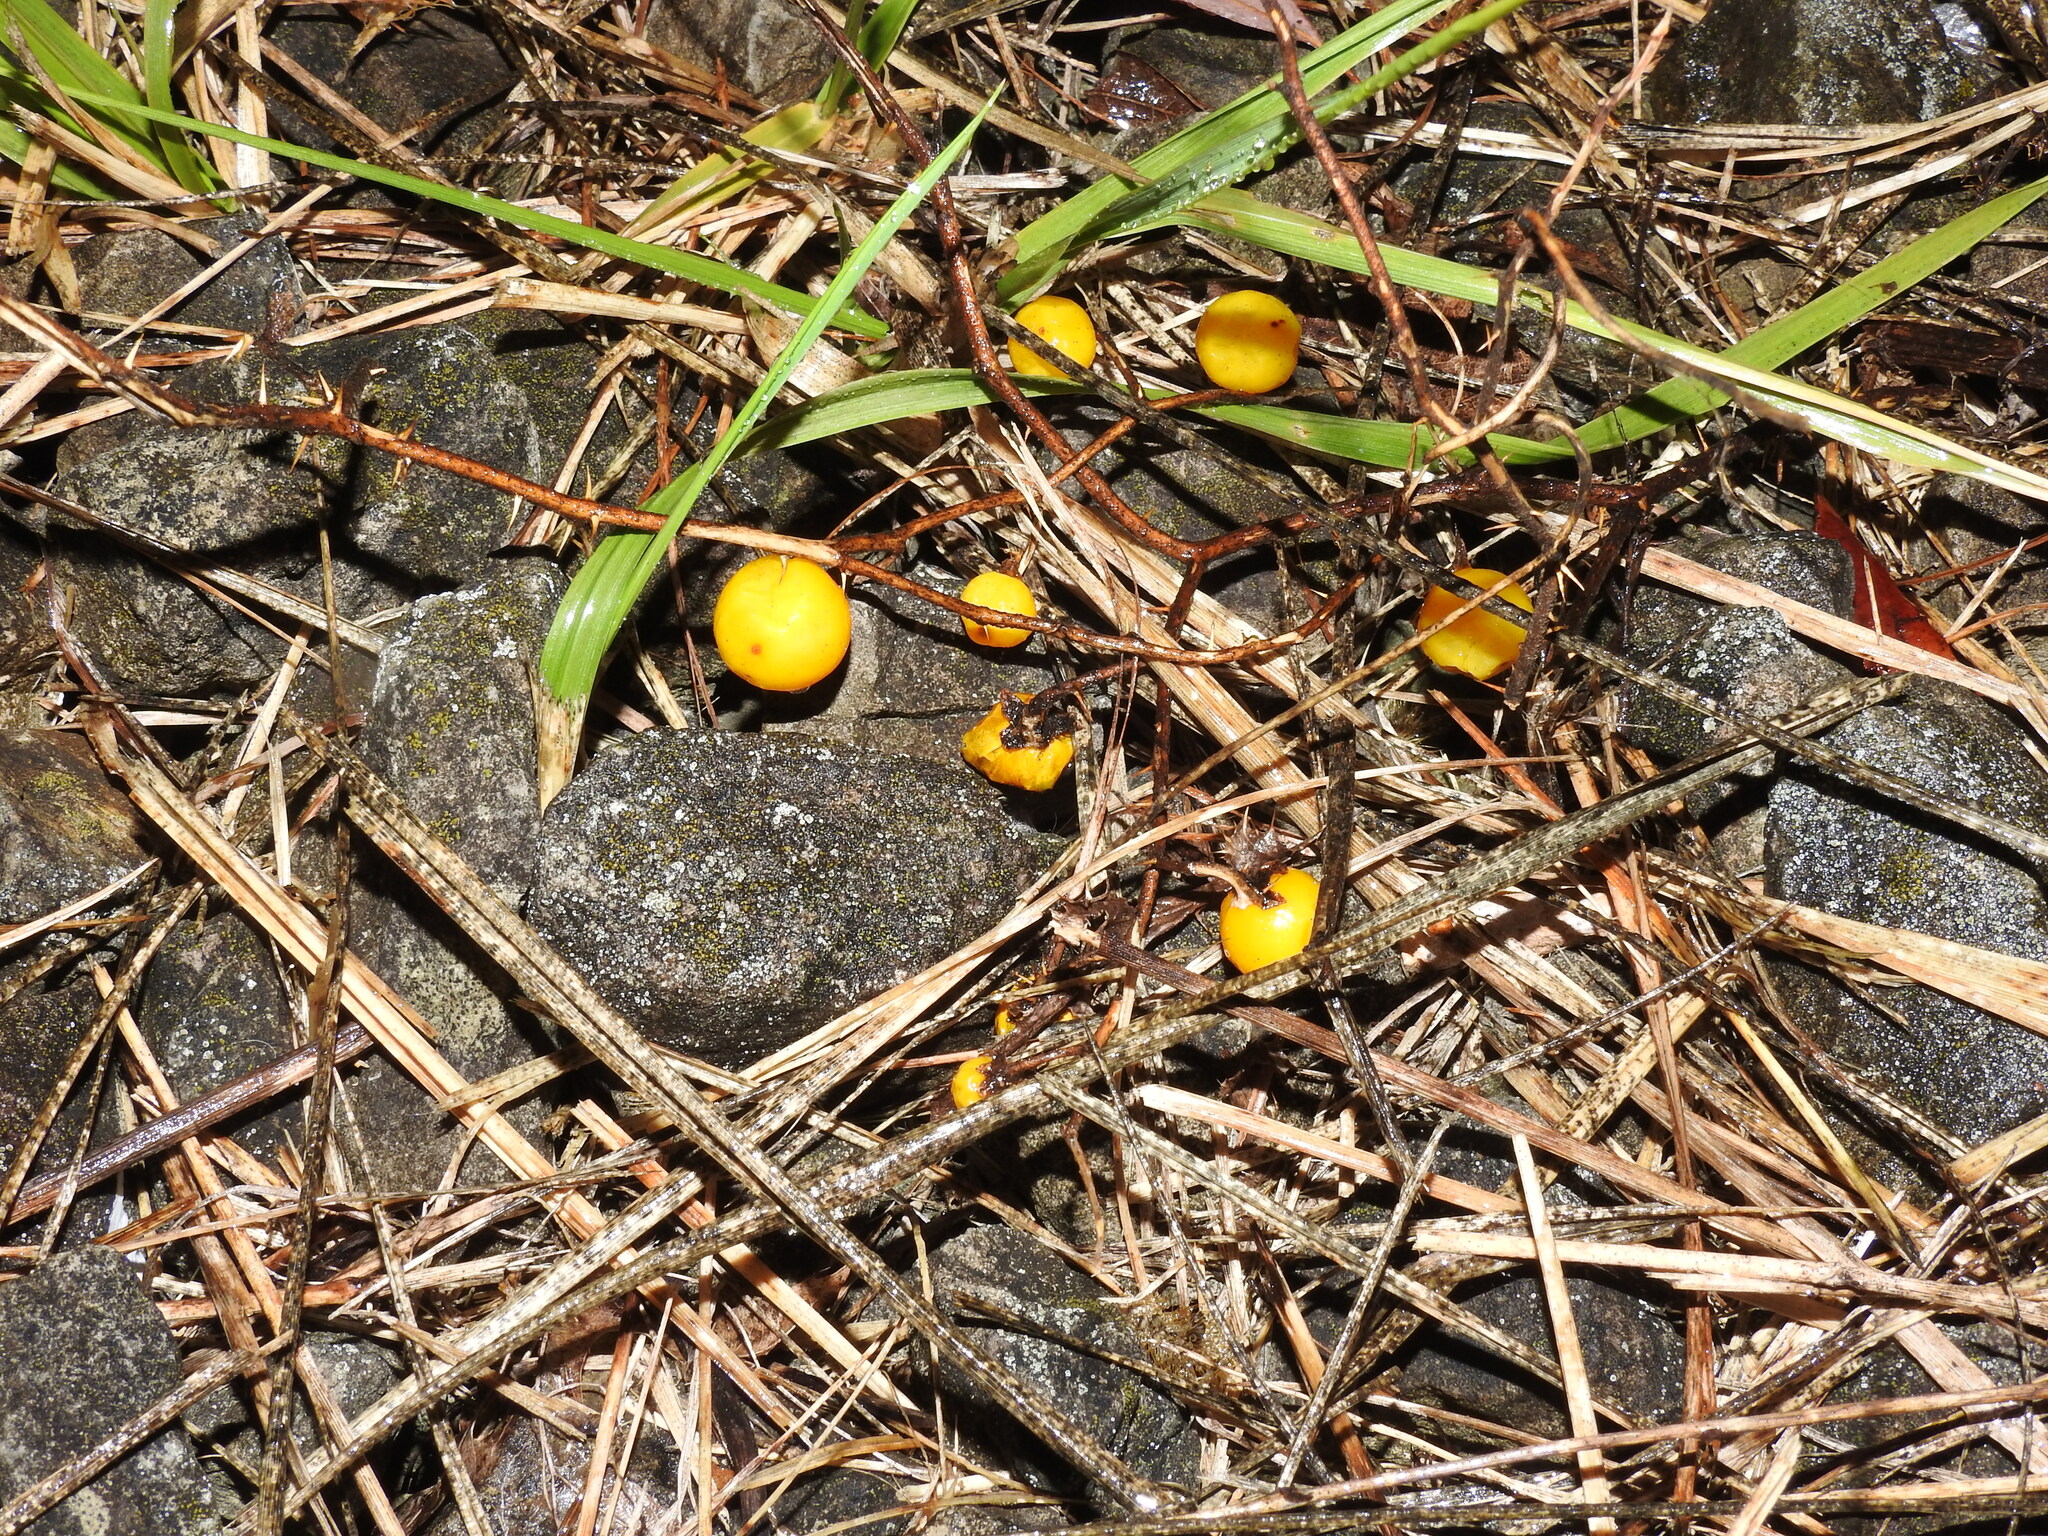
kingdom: Plantae
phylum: Tracheophyta
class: Magnoliopsida
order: Solanales
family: Solanaceae
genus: Solanum
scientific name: Solanum carolinense
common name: Horse-nettle
